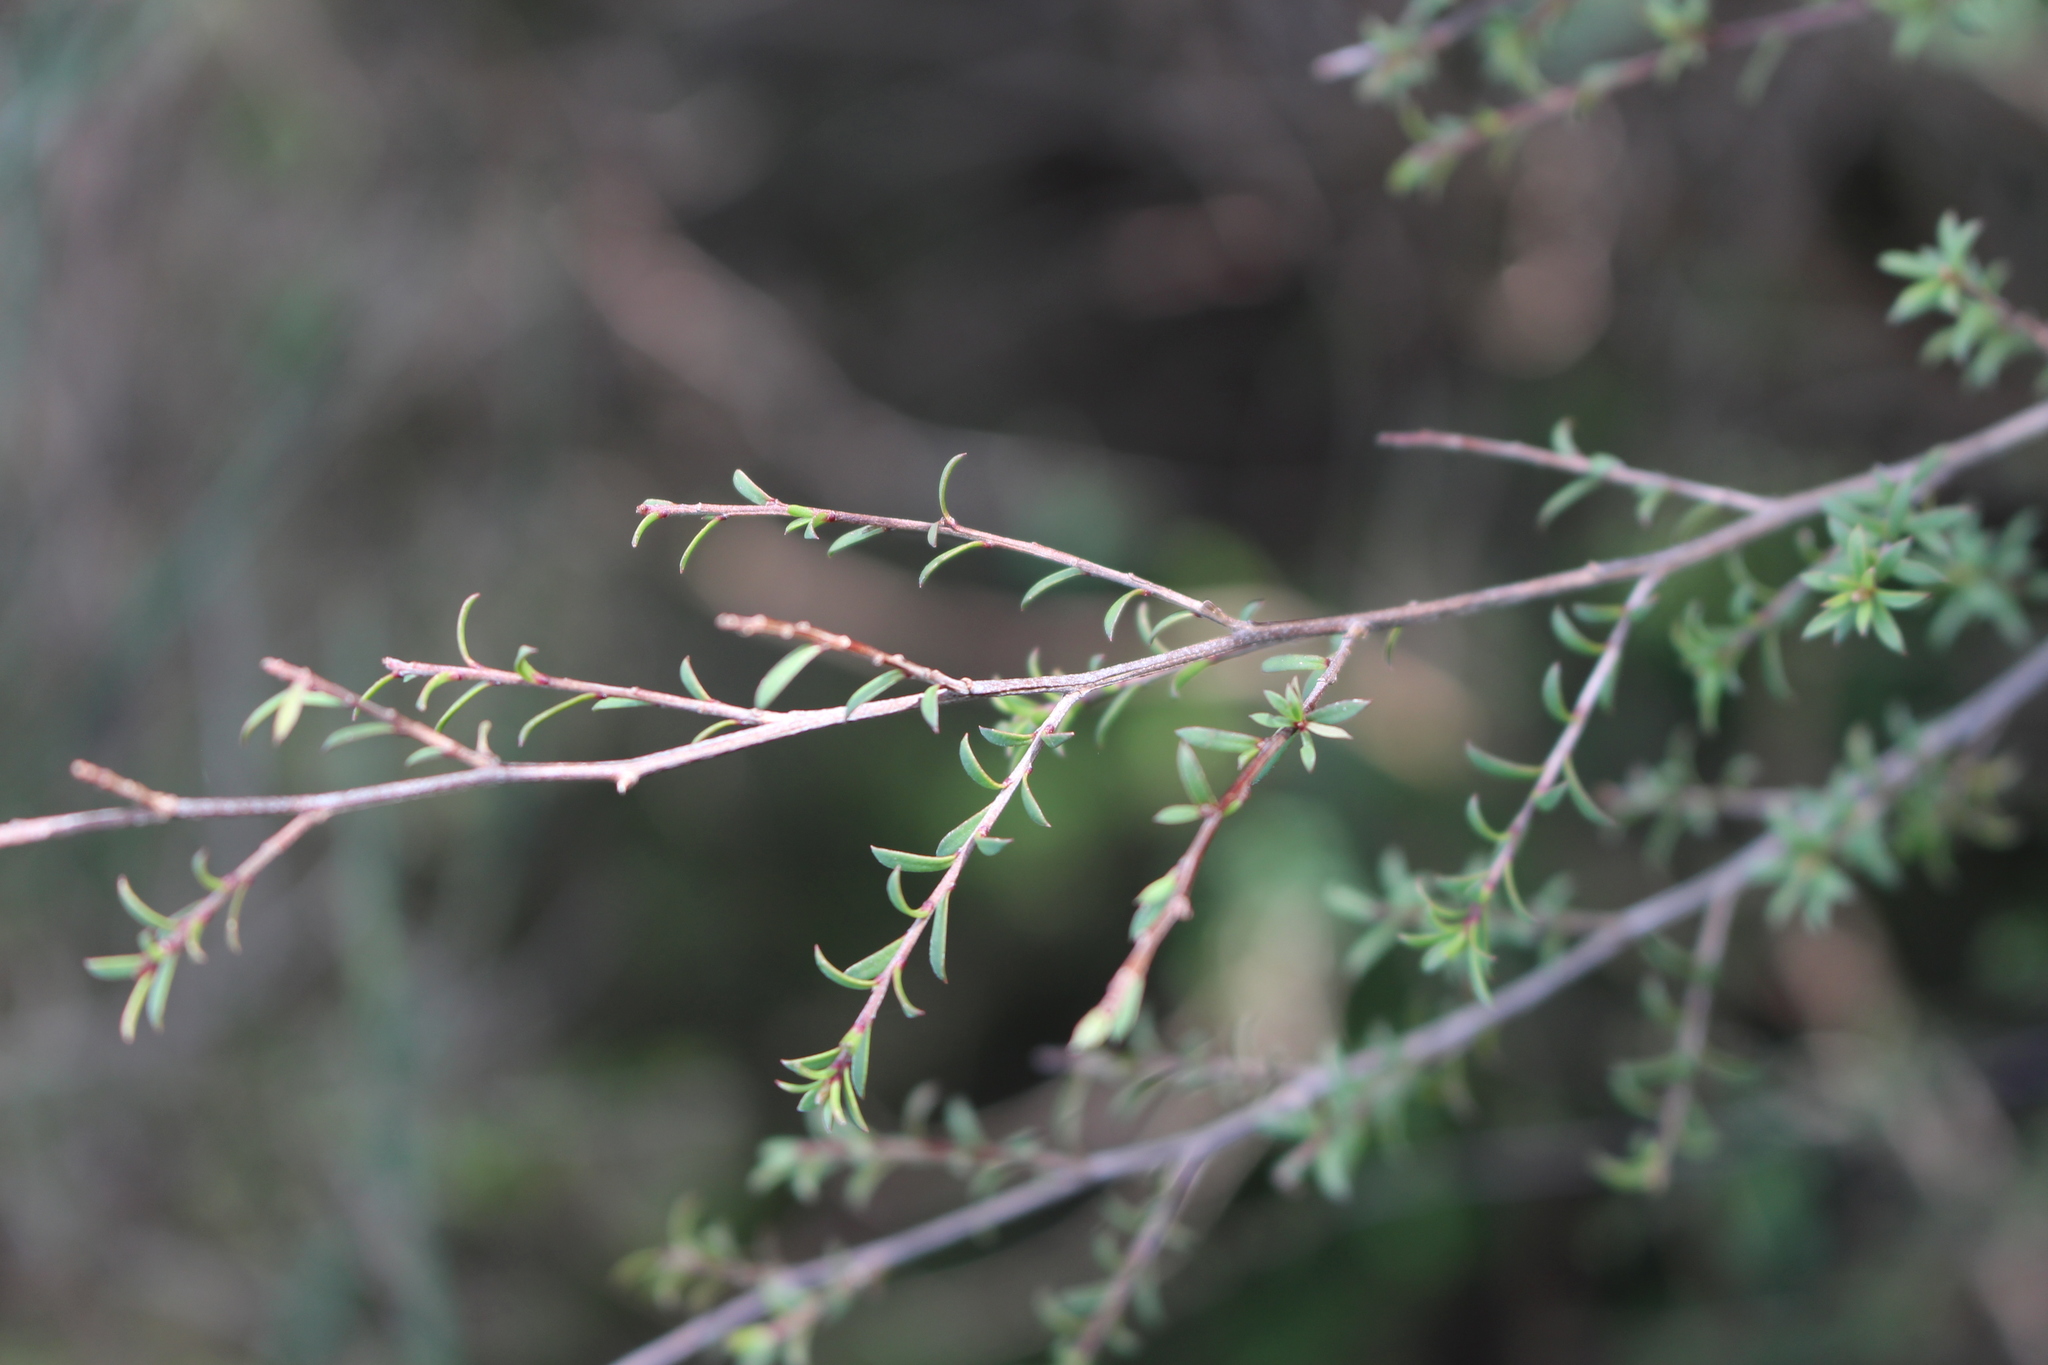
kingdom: Plantae
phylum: Tracheophyta
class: Magnoliopsida
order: Myrtales
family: Myrtaceae
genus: Kunzea
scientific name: Kunzea robusta
